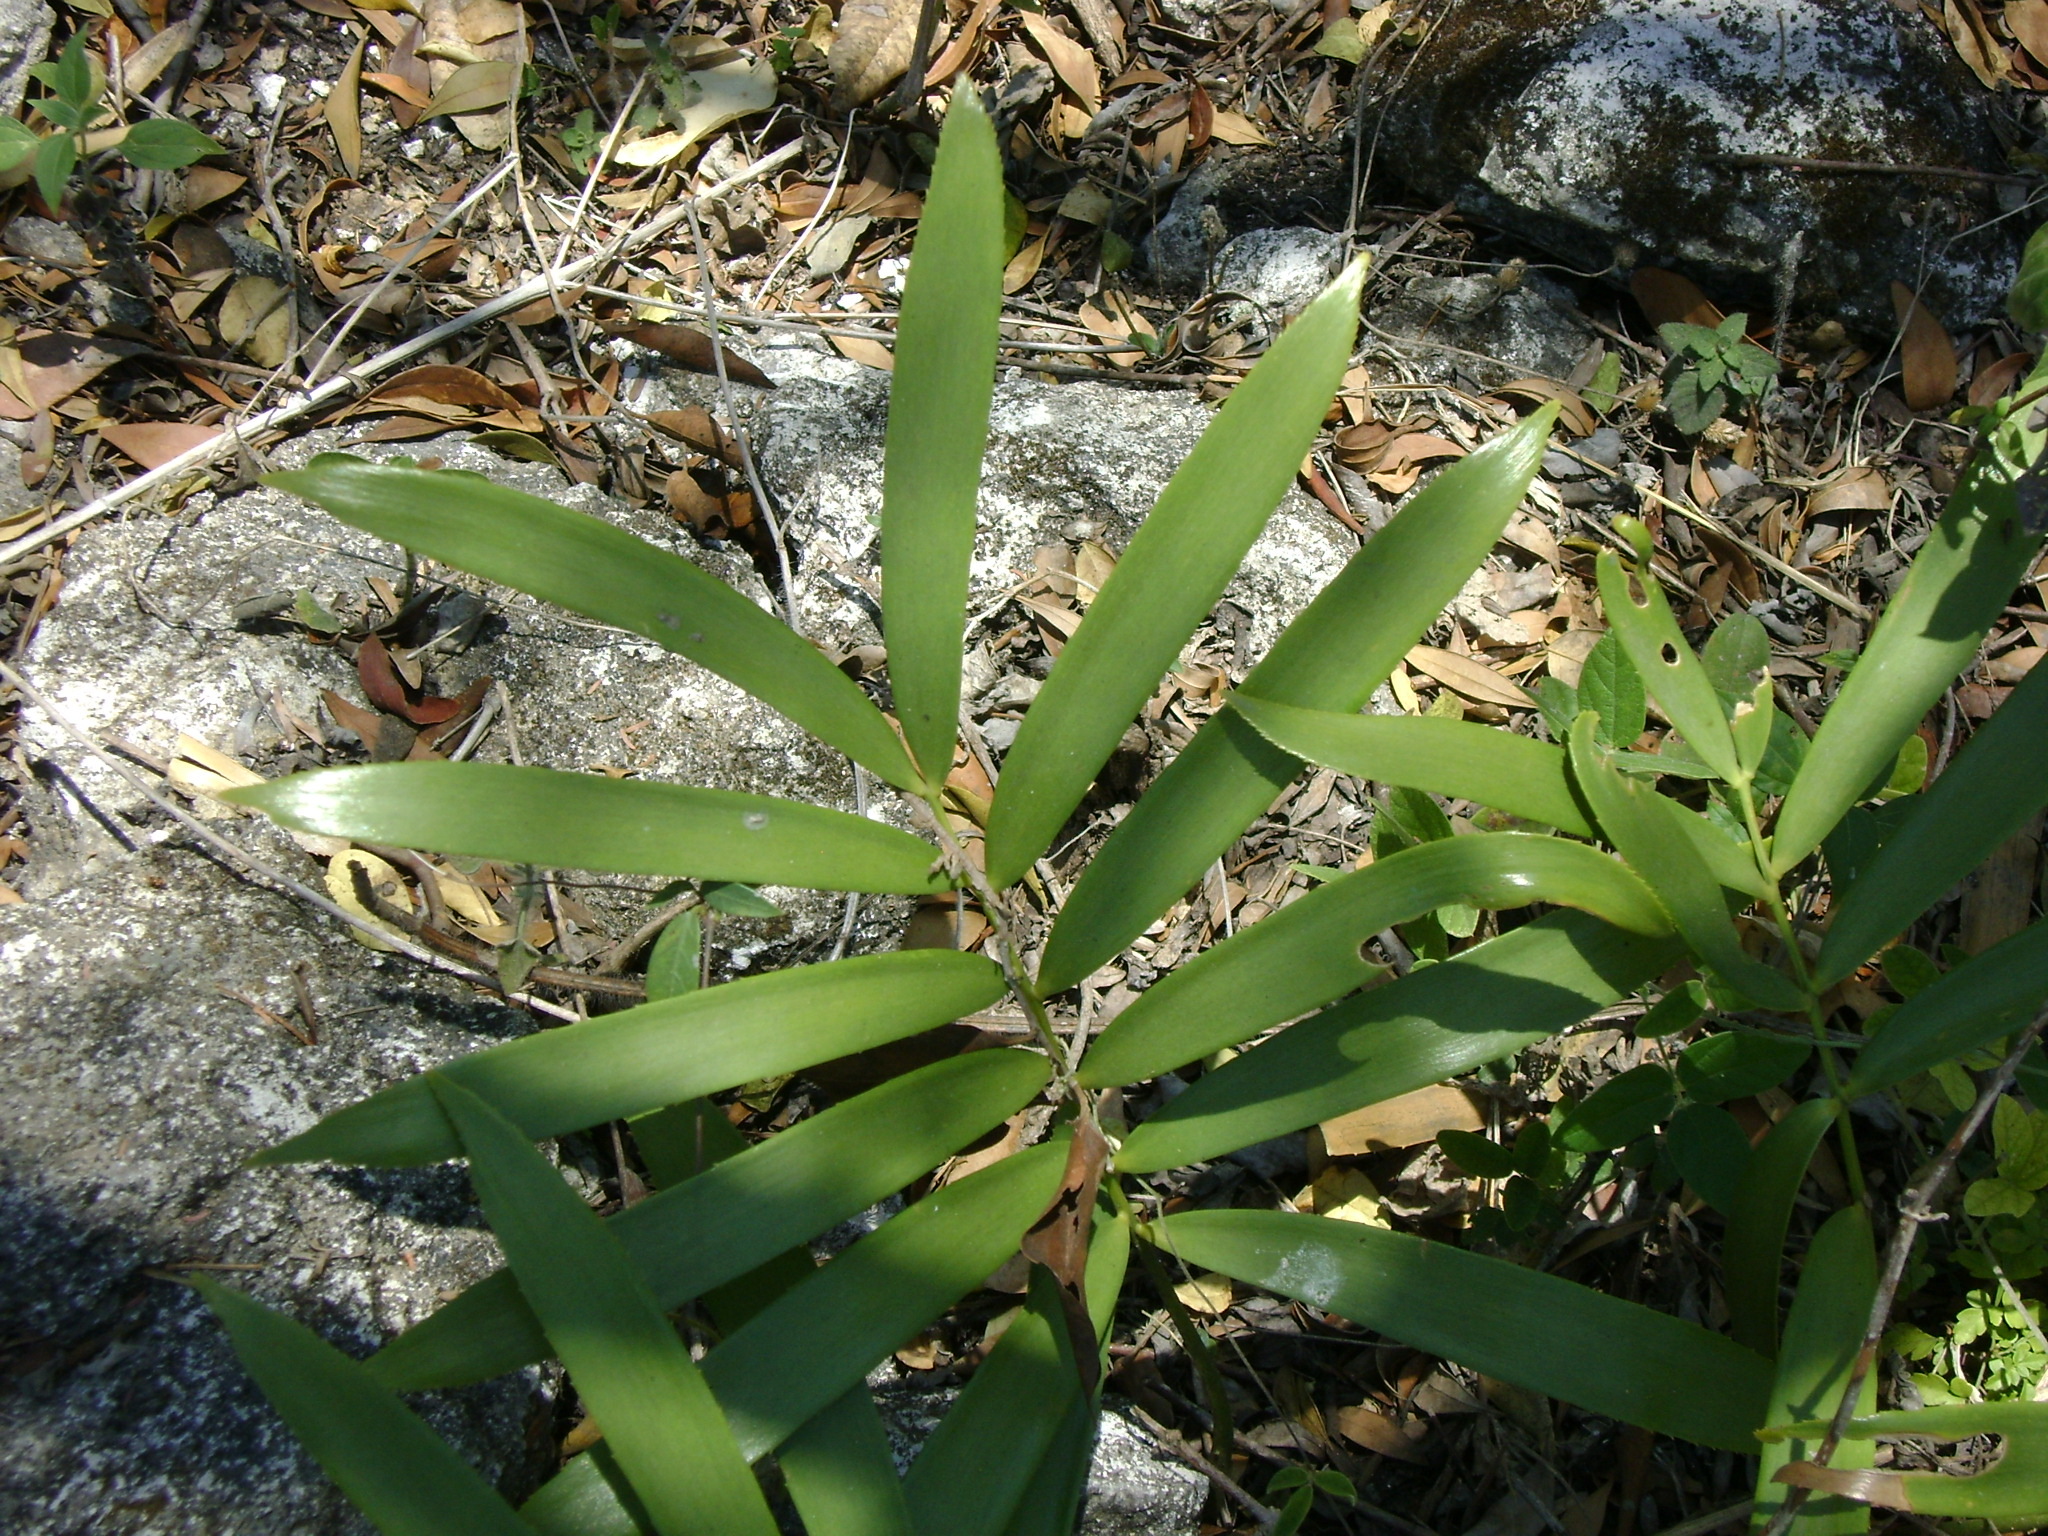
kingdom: Plantae
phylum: Tracheophyta
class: Cycadopsida
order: Cycadales
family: Zamiaceae
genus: Zamia
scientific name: Zamia loddigesii
